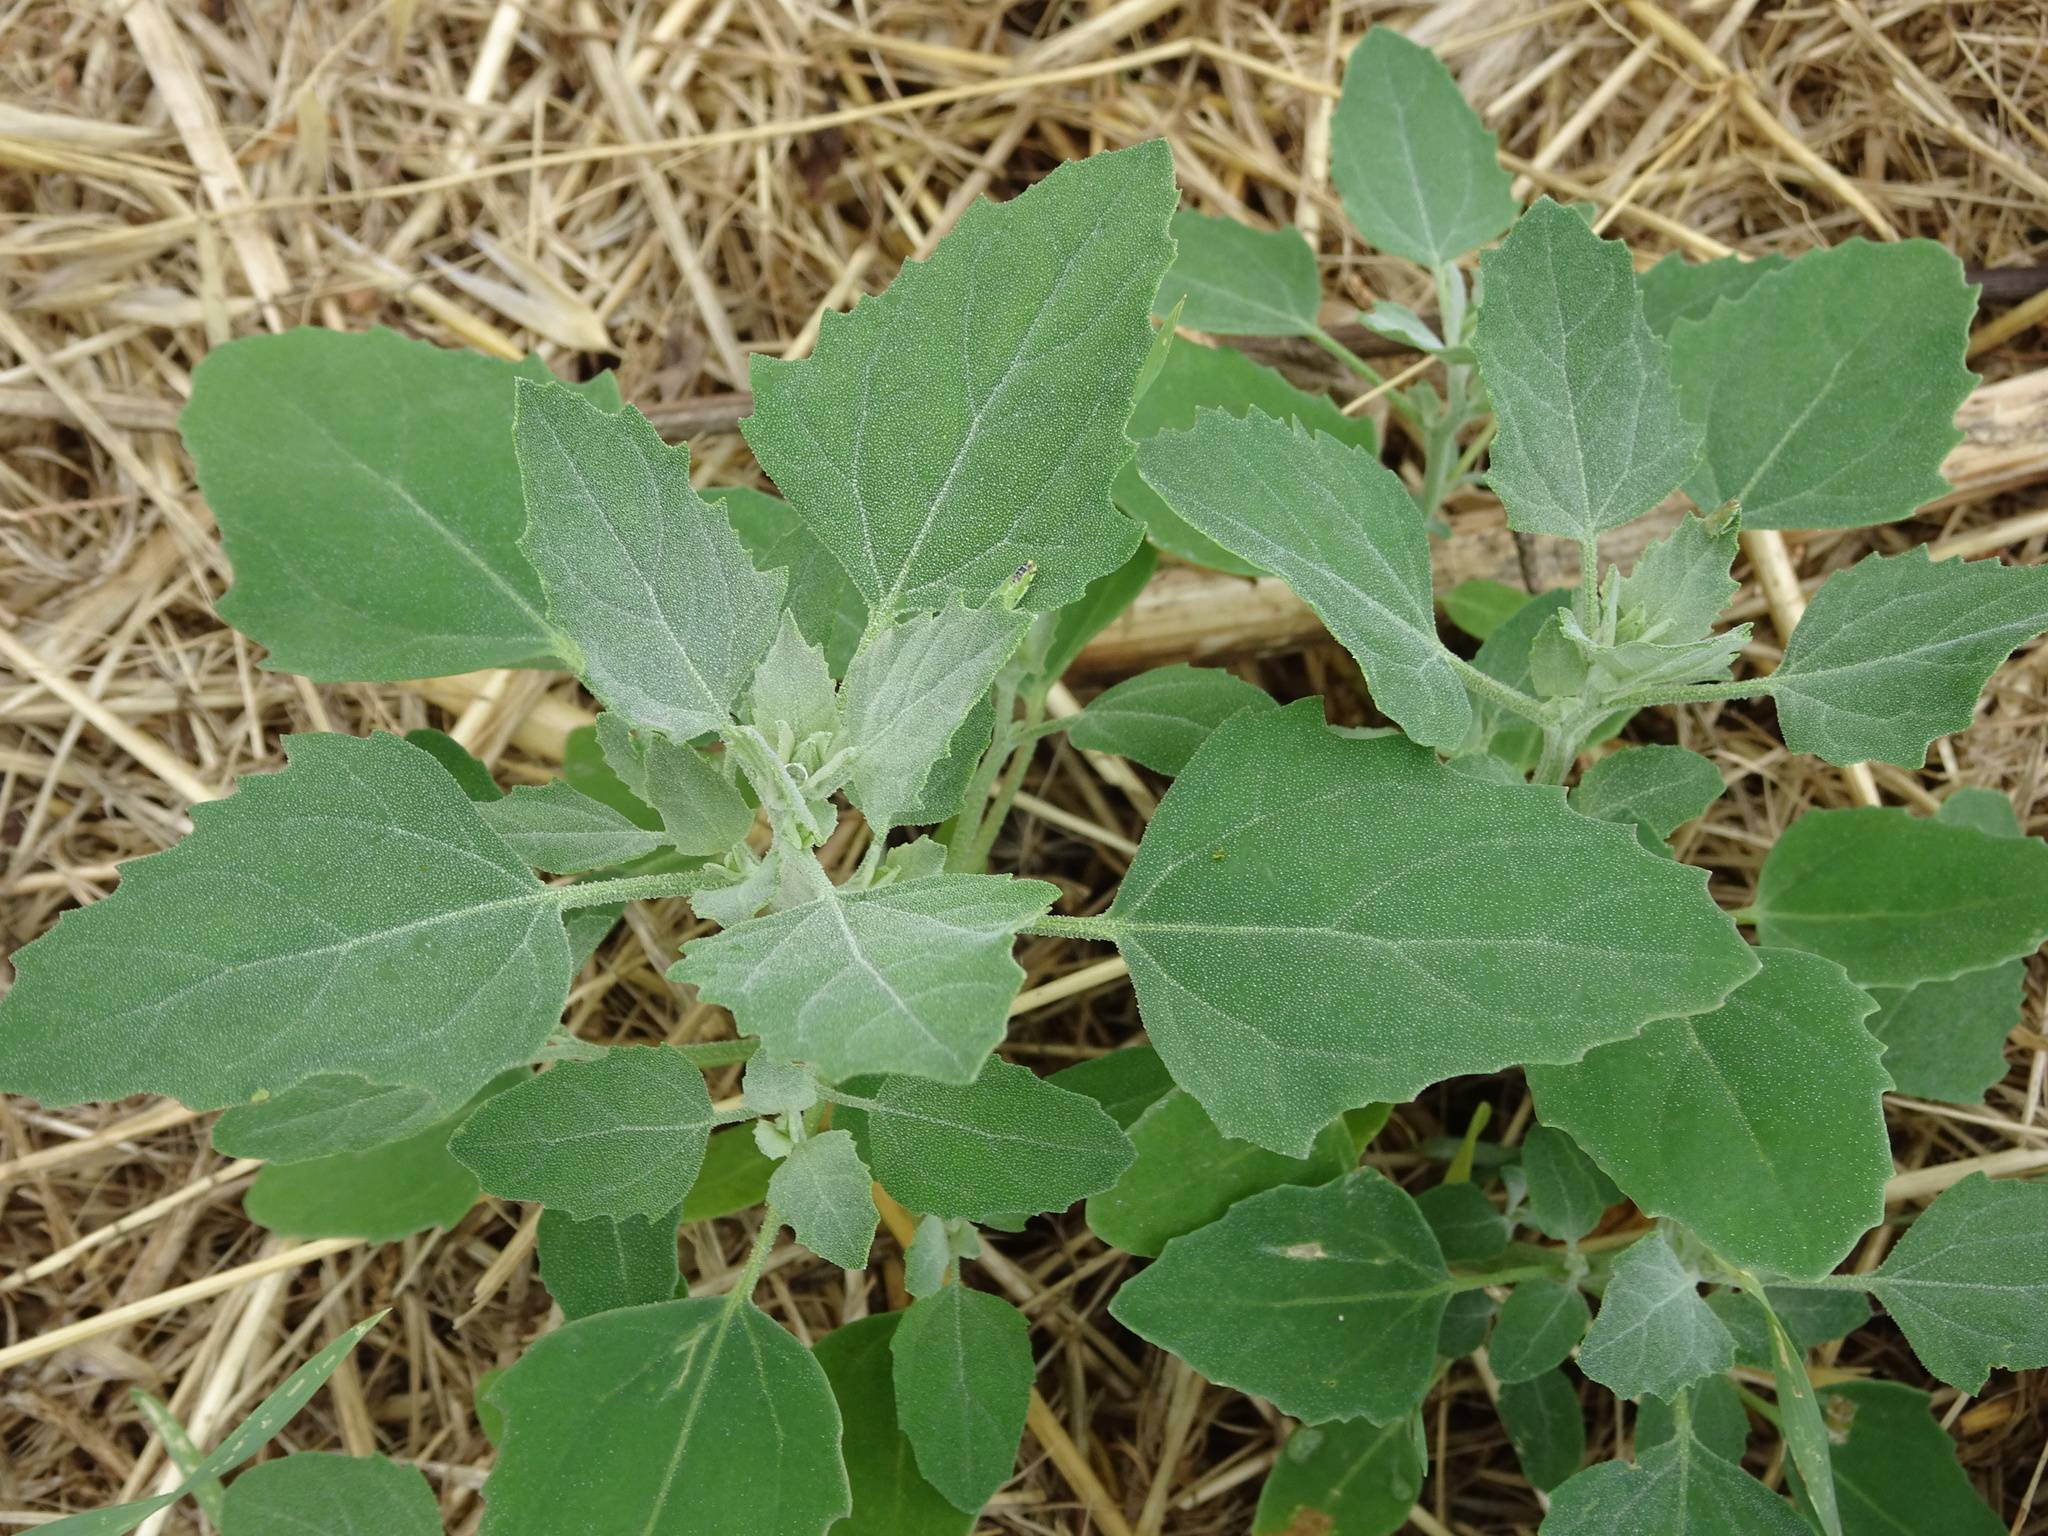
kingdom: Plantae
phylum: Tracheophyta
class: Magnoliopsida
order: Caryophyllales
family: Amaranthaceae
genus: Chenopodium
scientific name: Chenopodium album
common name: Fat-hen
